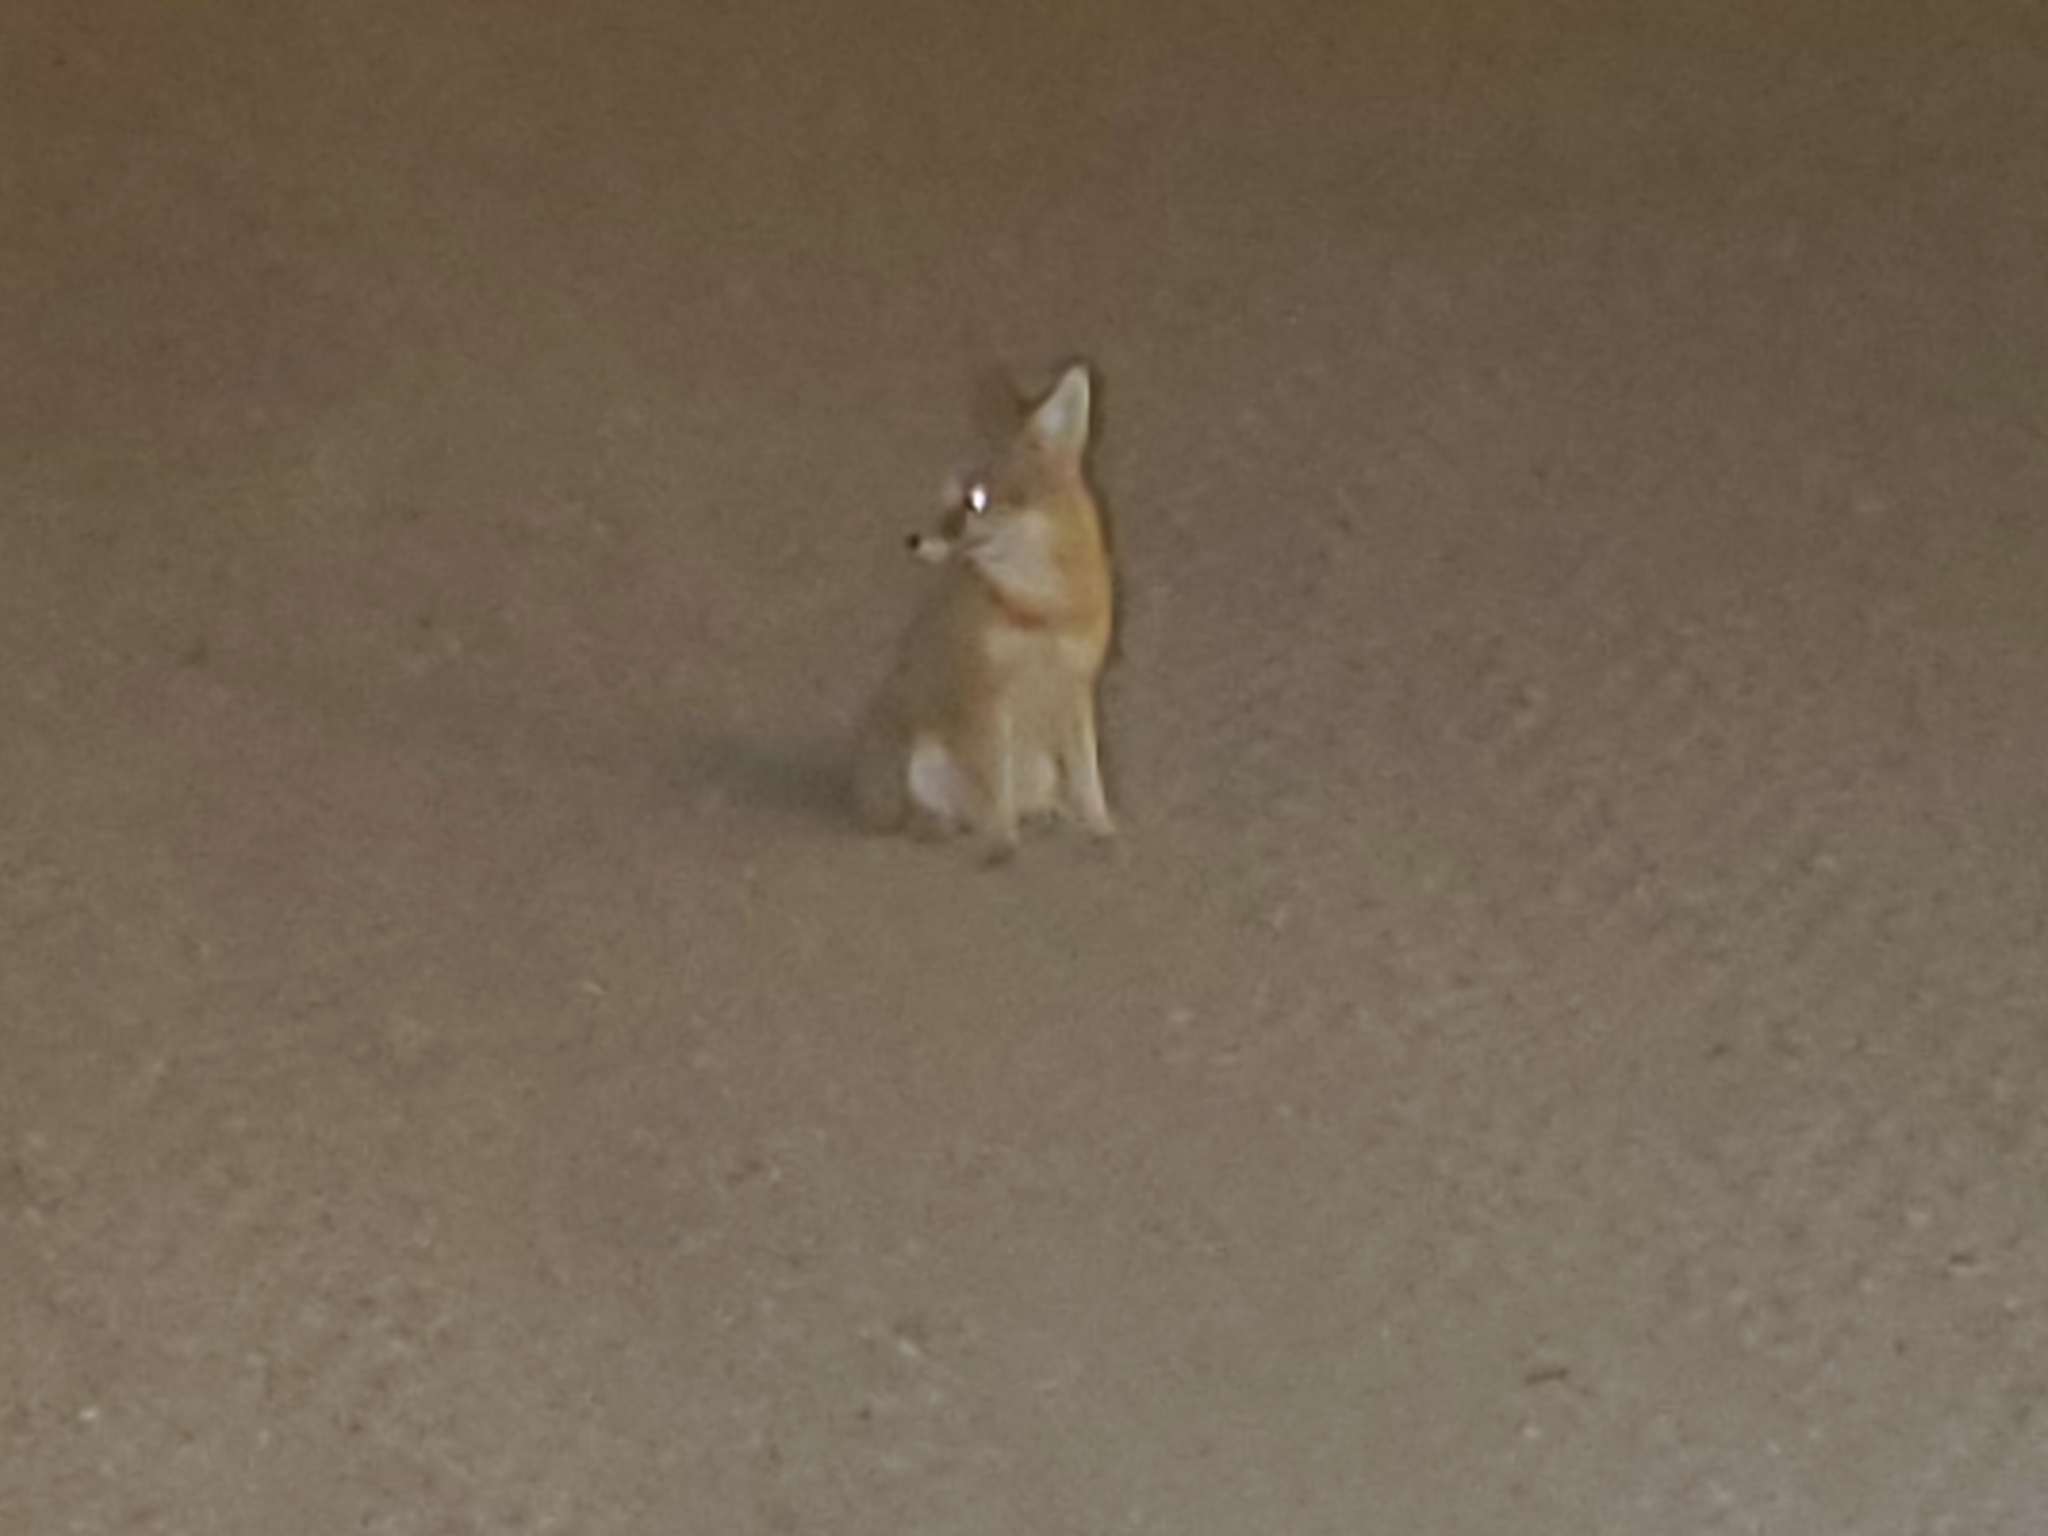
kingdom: Animalia
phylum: Chordata
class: Mammalia
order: Carnivora
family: Canidae
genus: Vulpes
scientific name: Vulpes macrotis
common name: Kit fox
